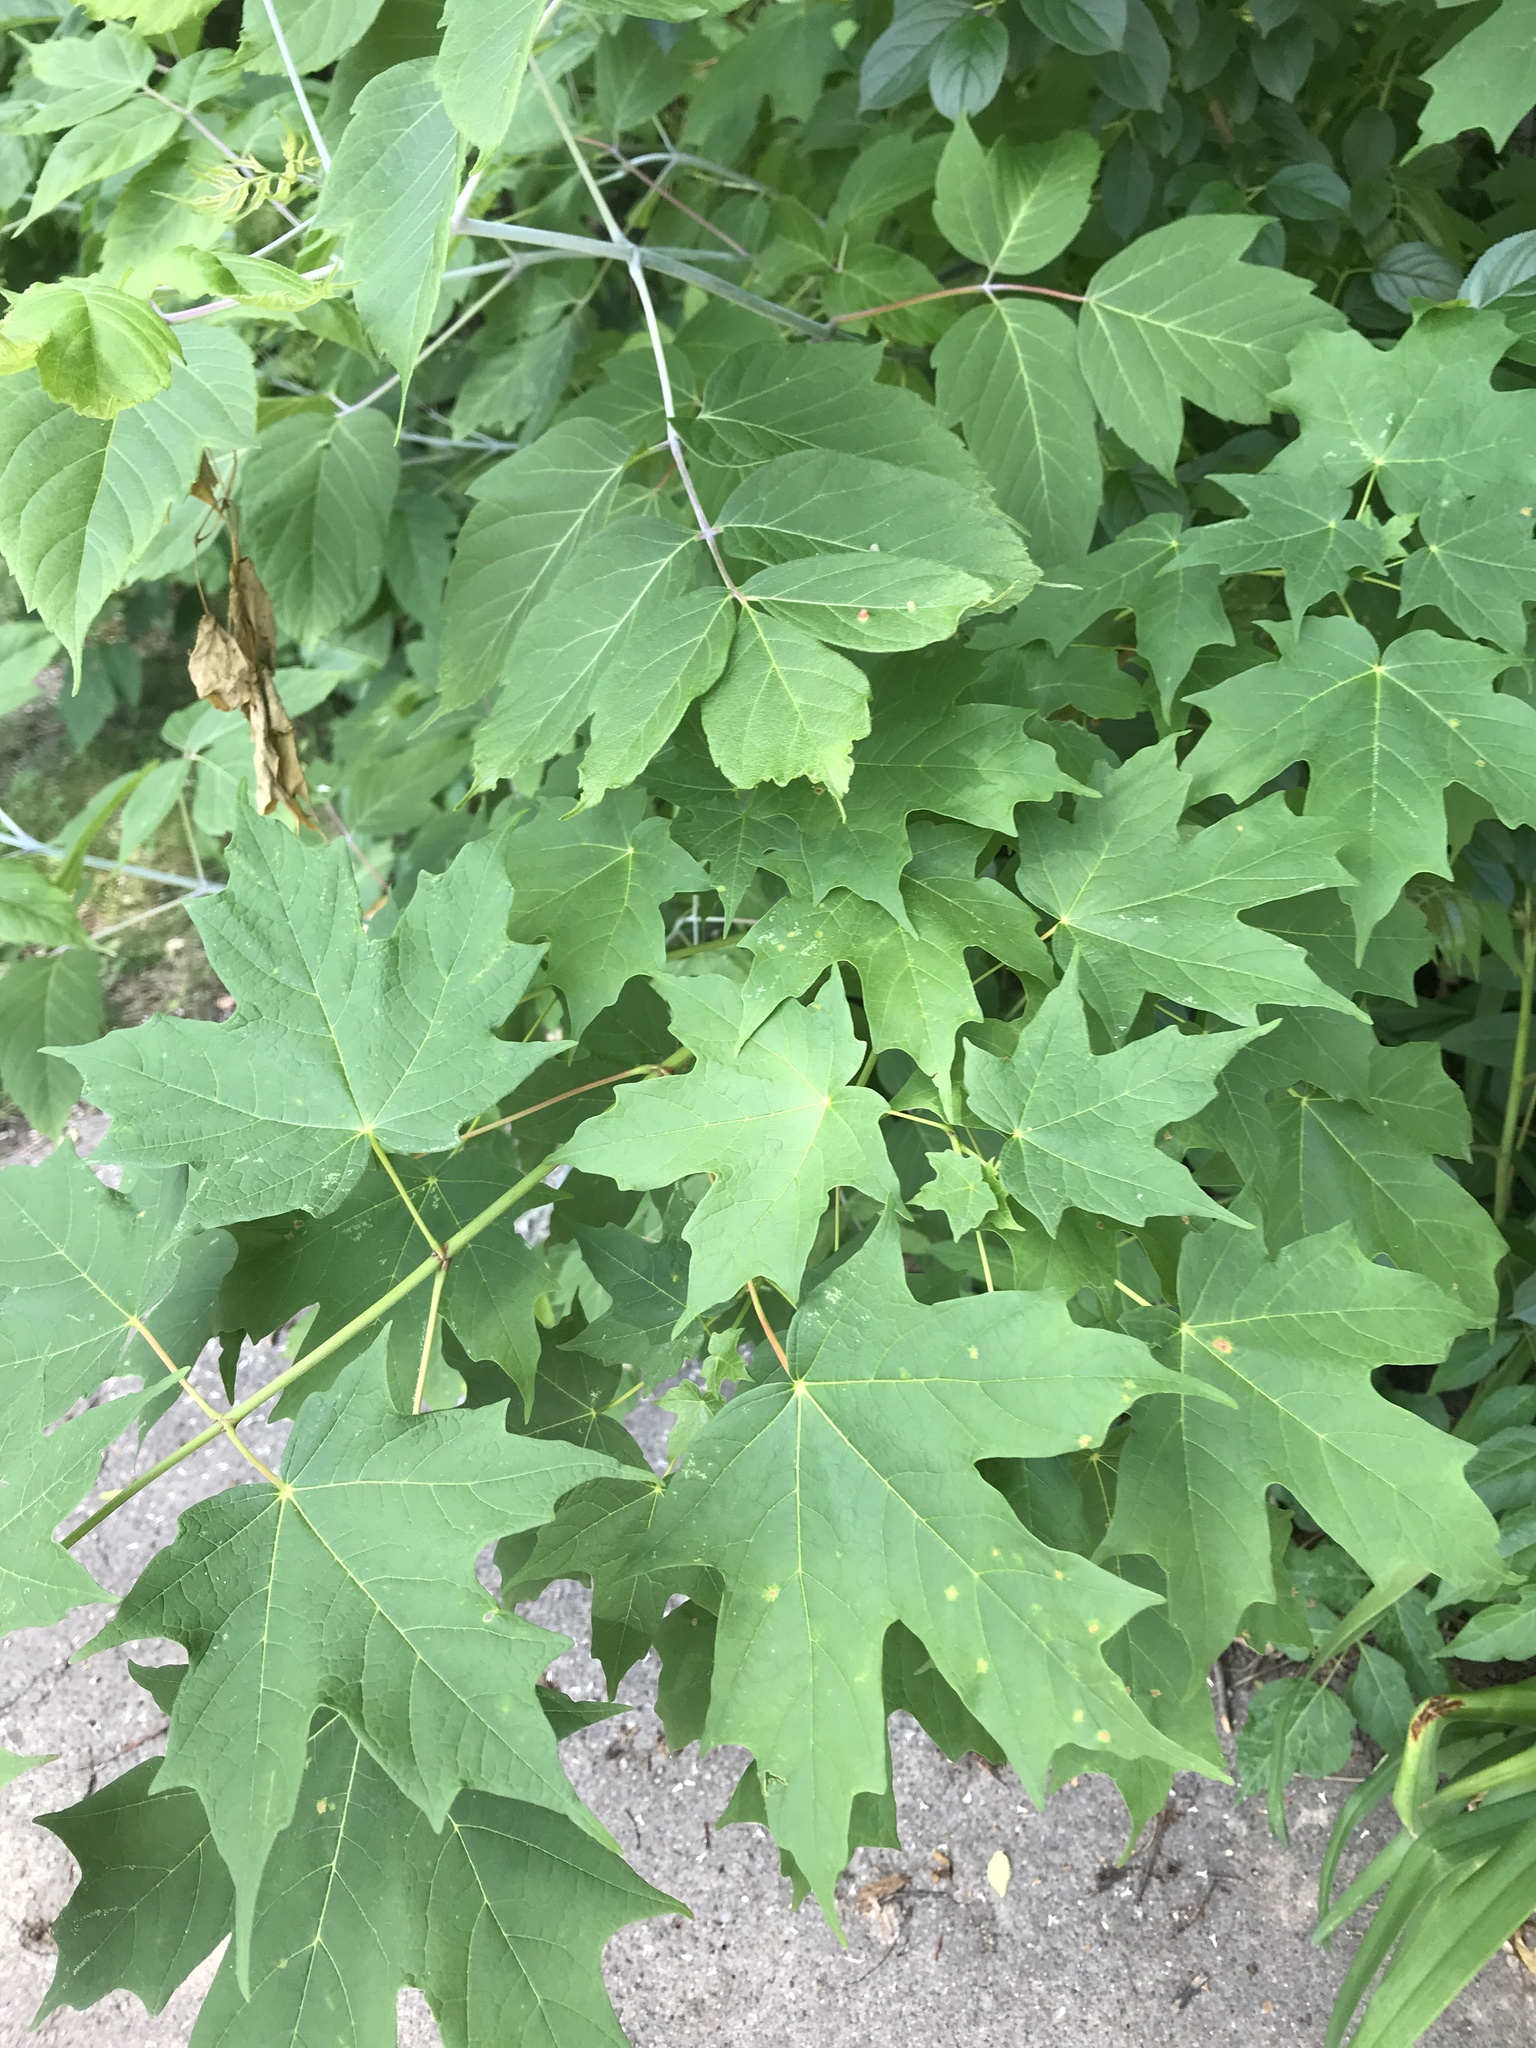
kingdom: Plantae
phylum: Tracheophyta
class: Magnoliopsida
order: Sapindales
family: Sapindaceae
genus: Acer
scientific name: Acer saccharum
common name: Sugar maple
